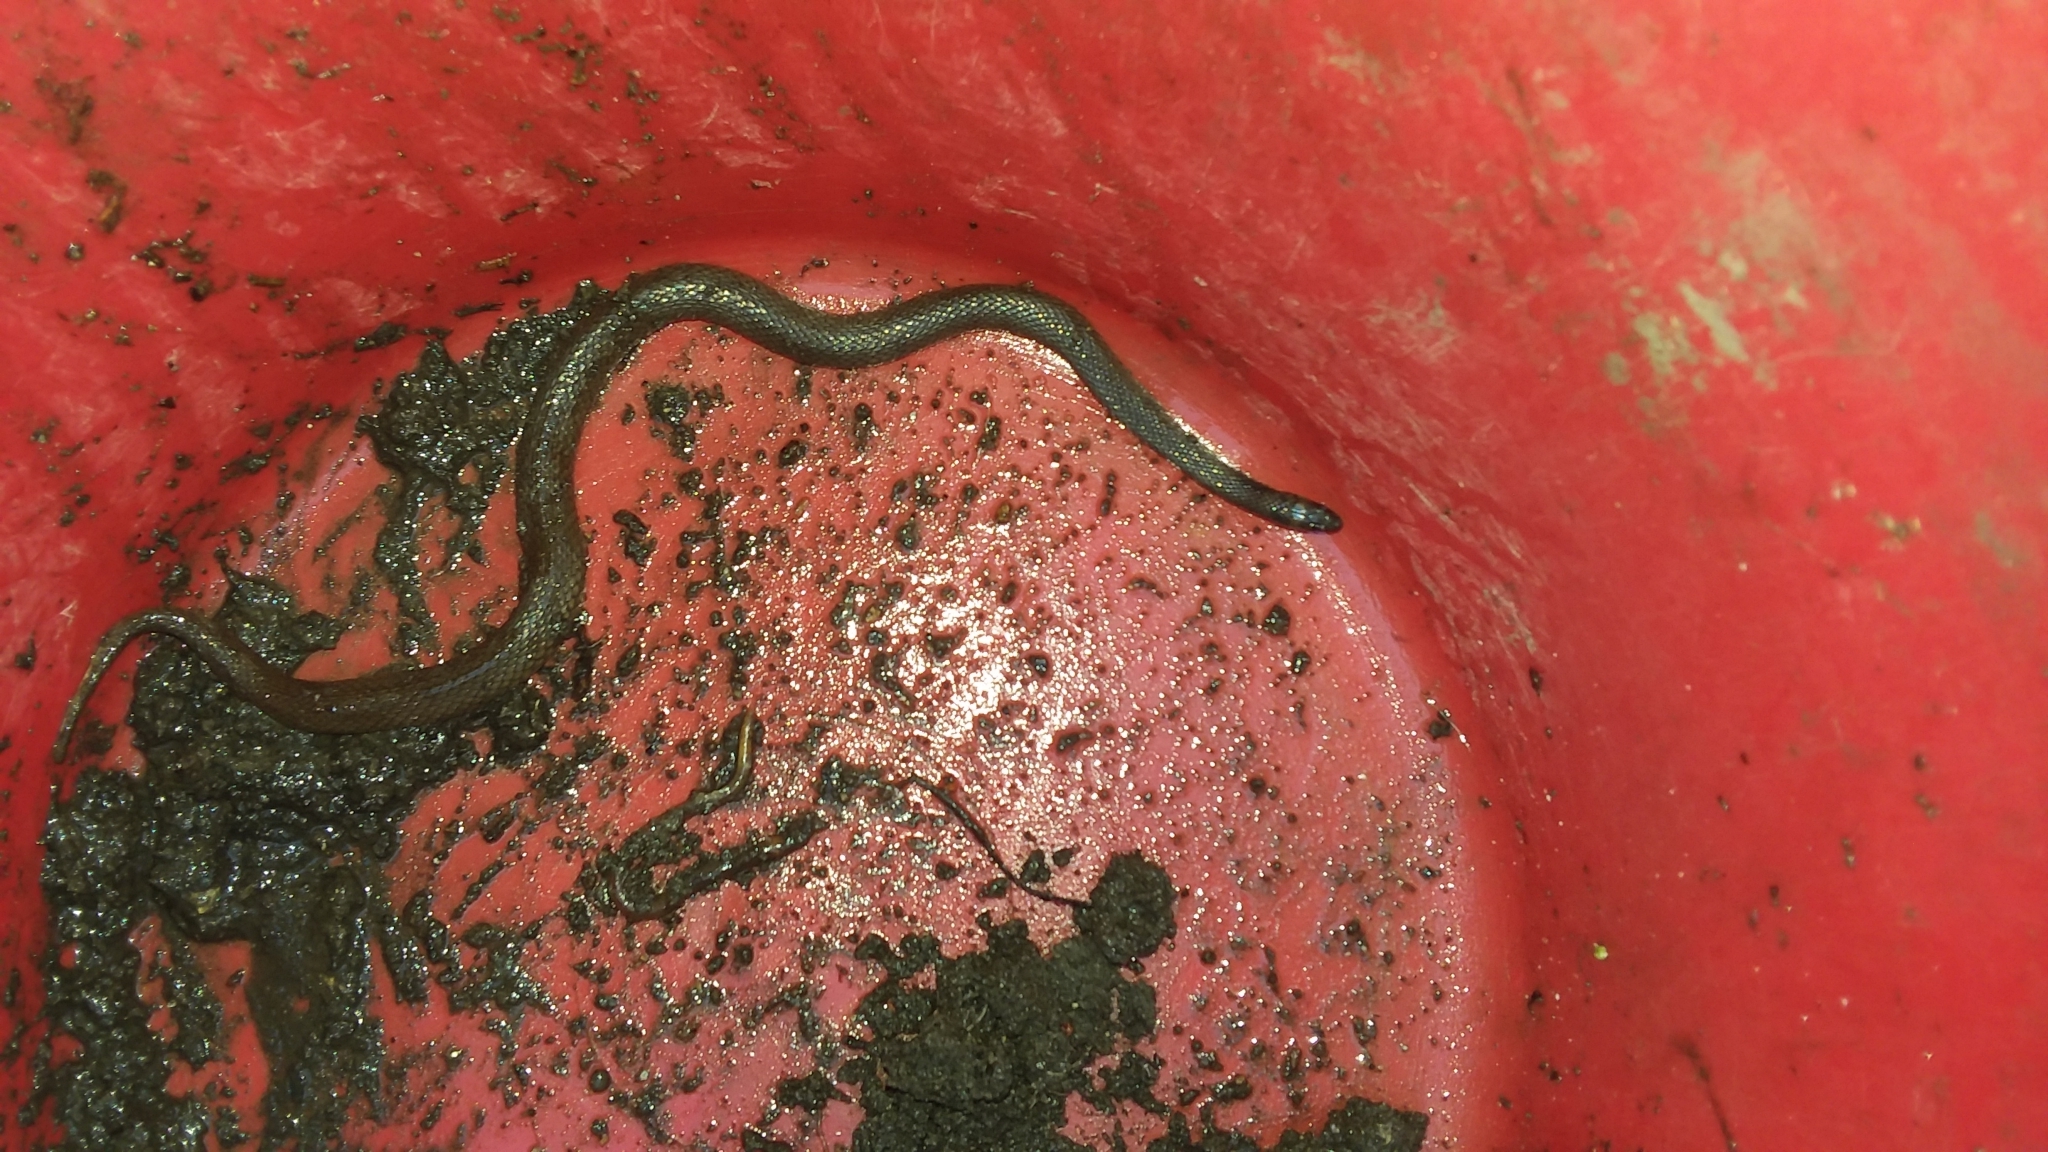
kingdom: Animalia
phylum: Chordata
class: Squamata
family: Colubridae
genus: Haldea
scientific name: Haldea striatula
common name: Rough earth snake
